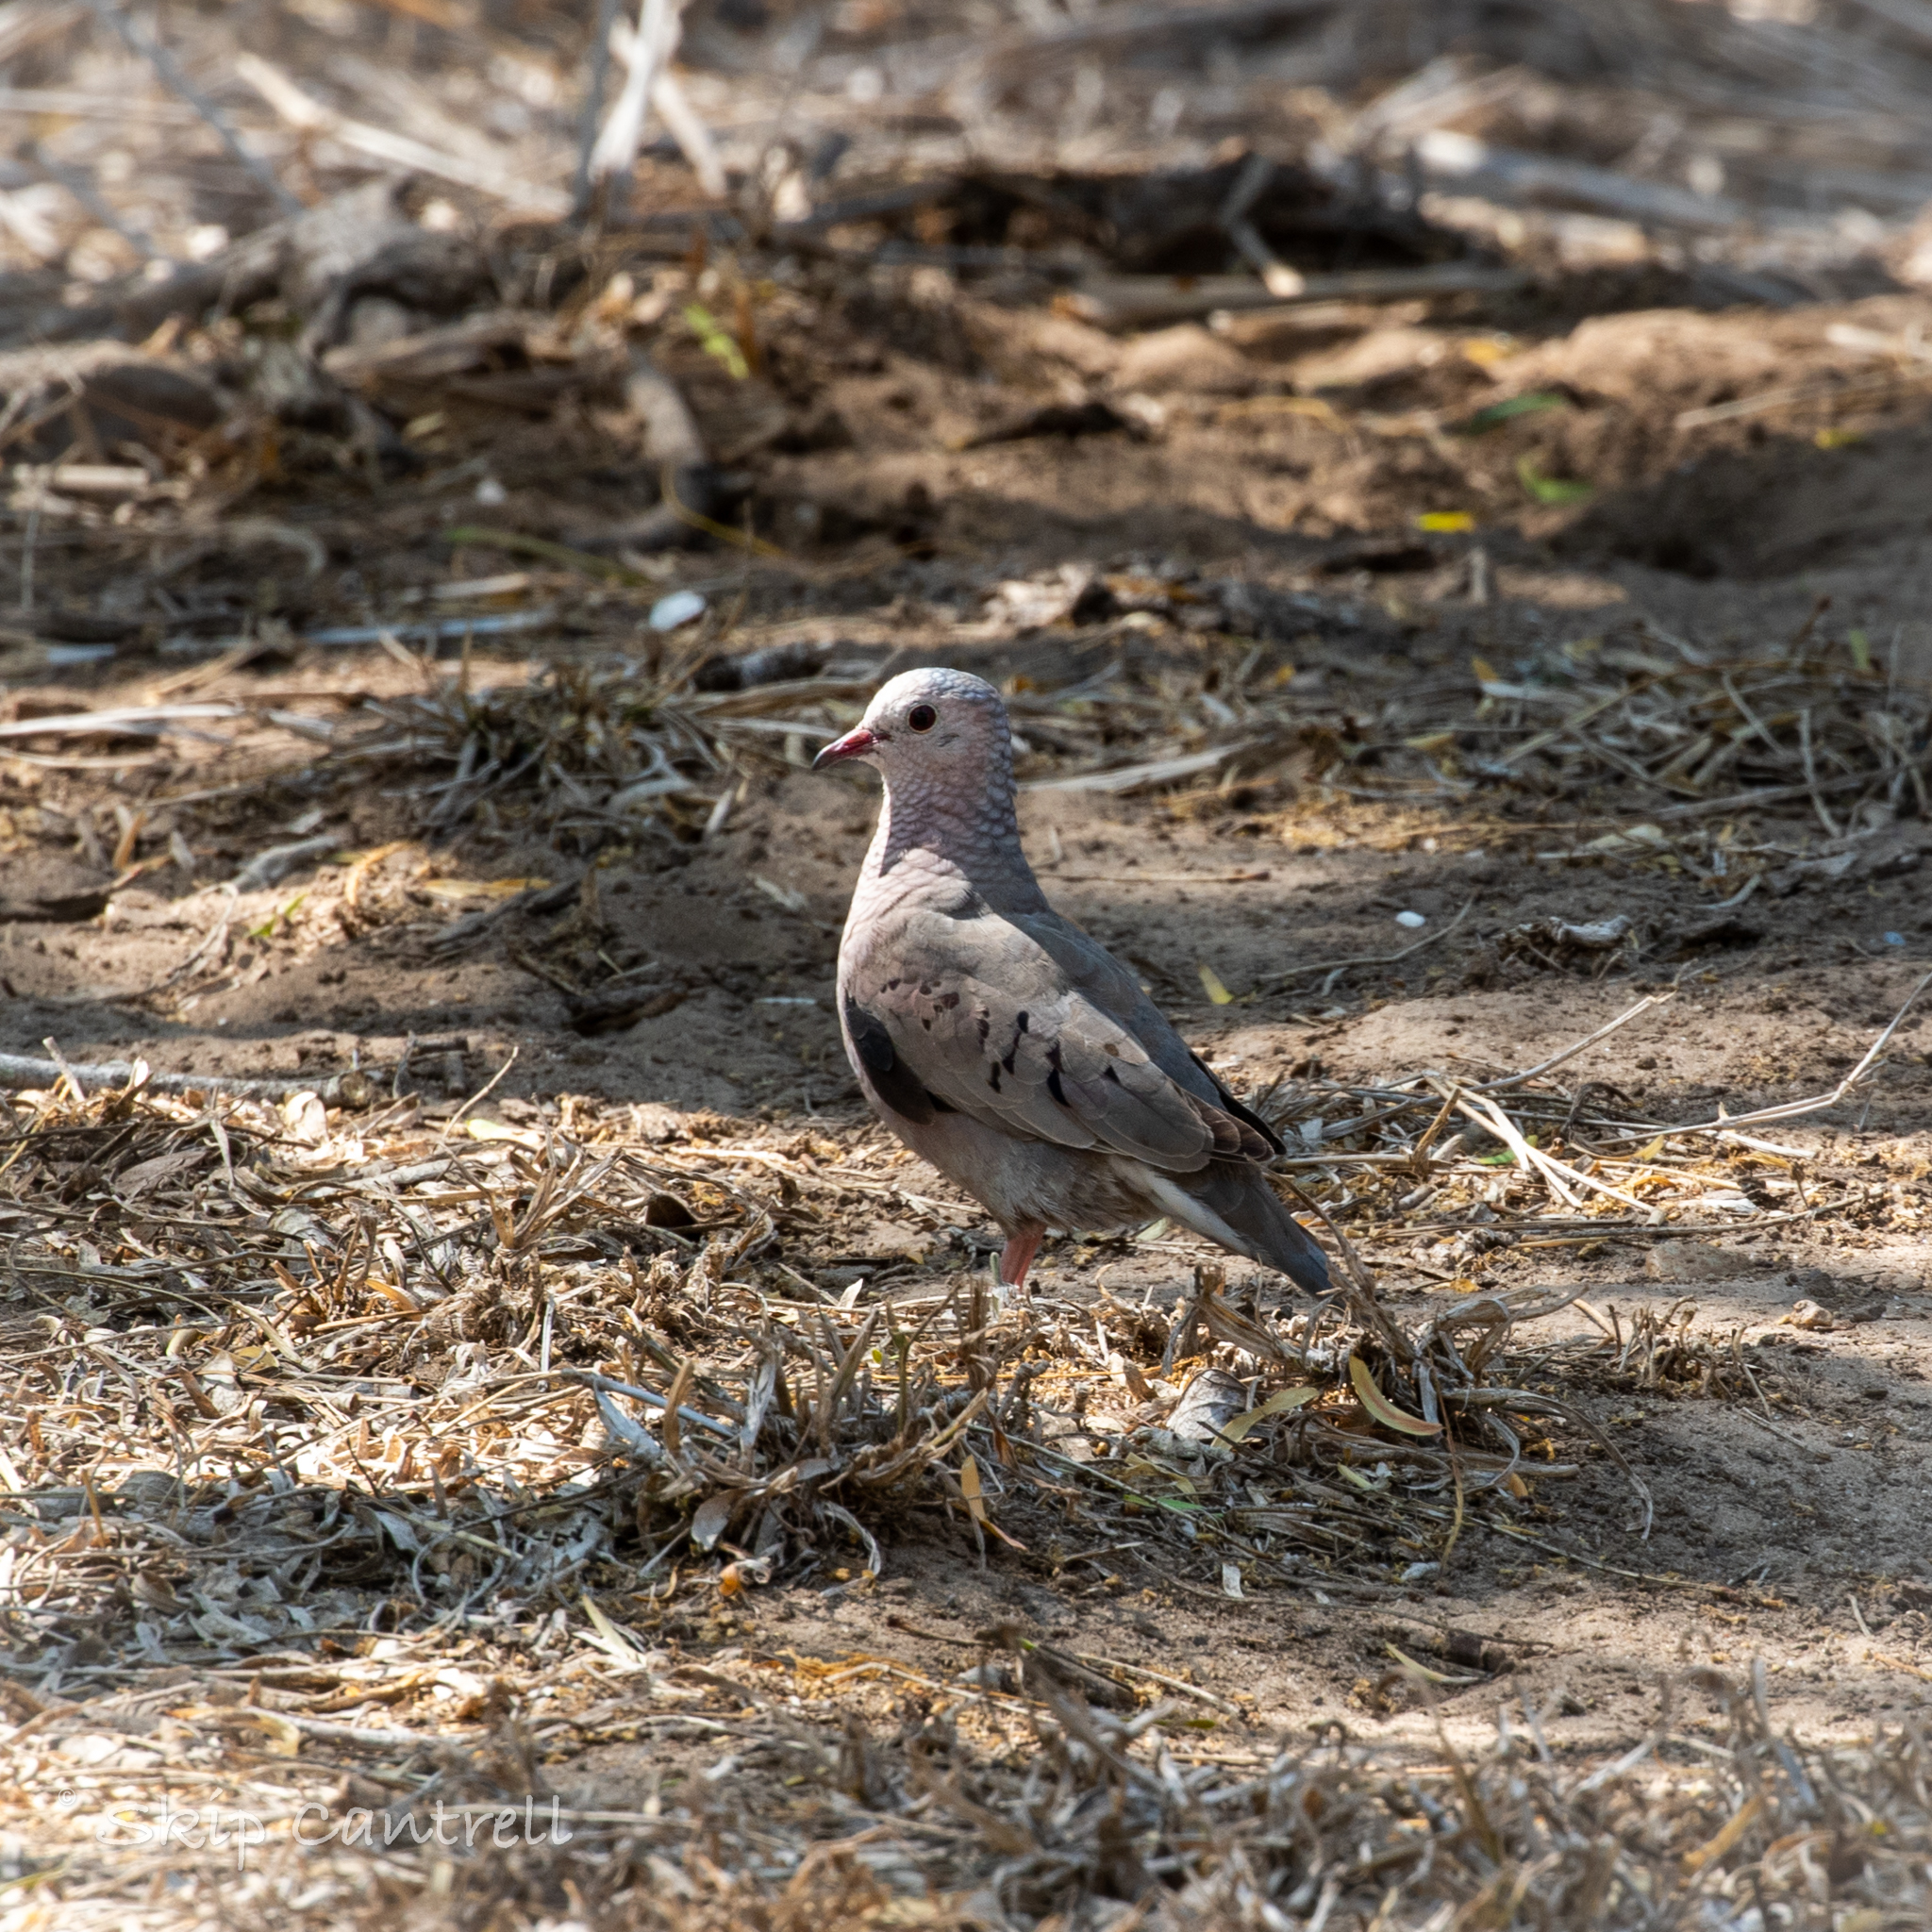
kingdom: Animalia
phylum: Chordata
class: Aves
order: Columbiformes
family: Columbidae
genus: Columbina
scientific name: Columbina passerina
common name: Common ground-dove
